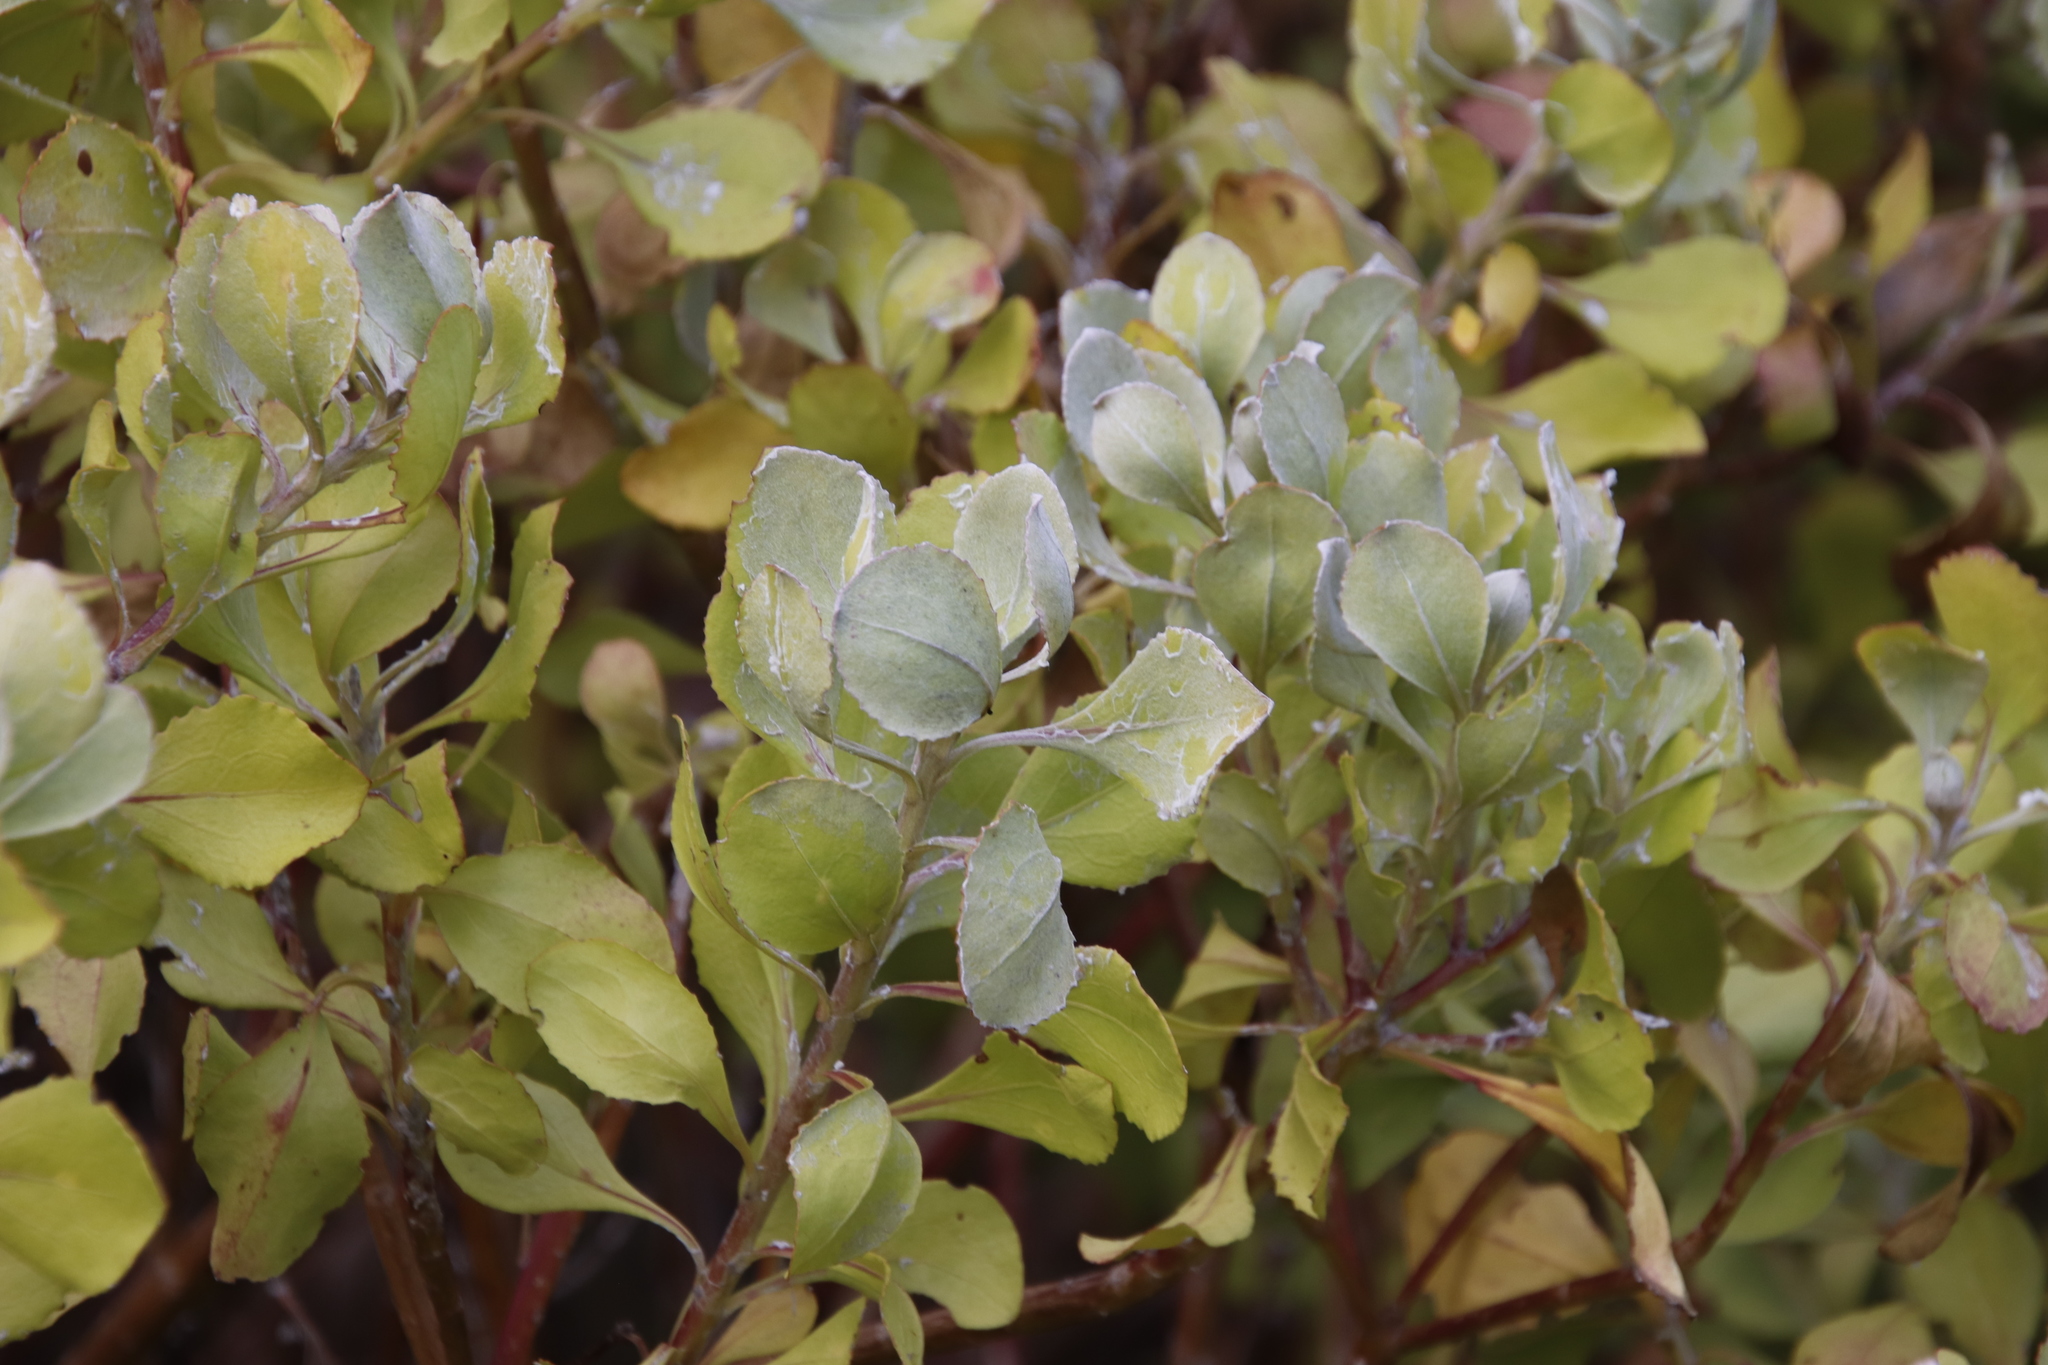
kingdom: Plantae
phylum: Tracheophyta
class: Magnoliopsida
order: Asterales
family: Asteraceae
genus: Osteospermum
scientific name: Osteospermum moniliferum
